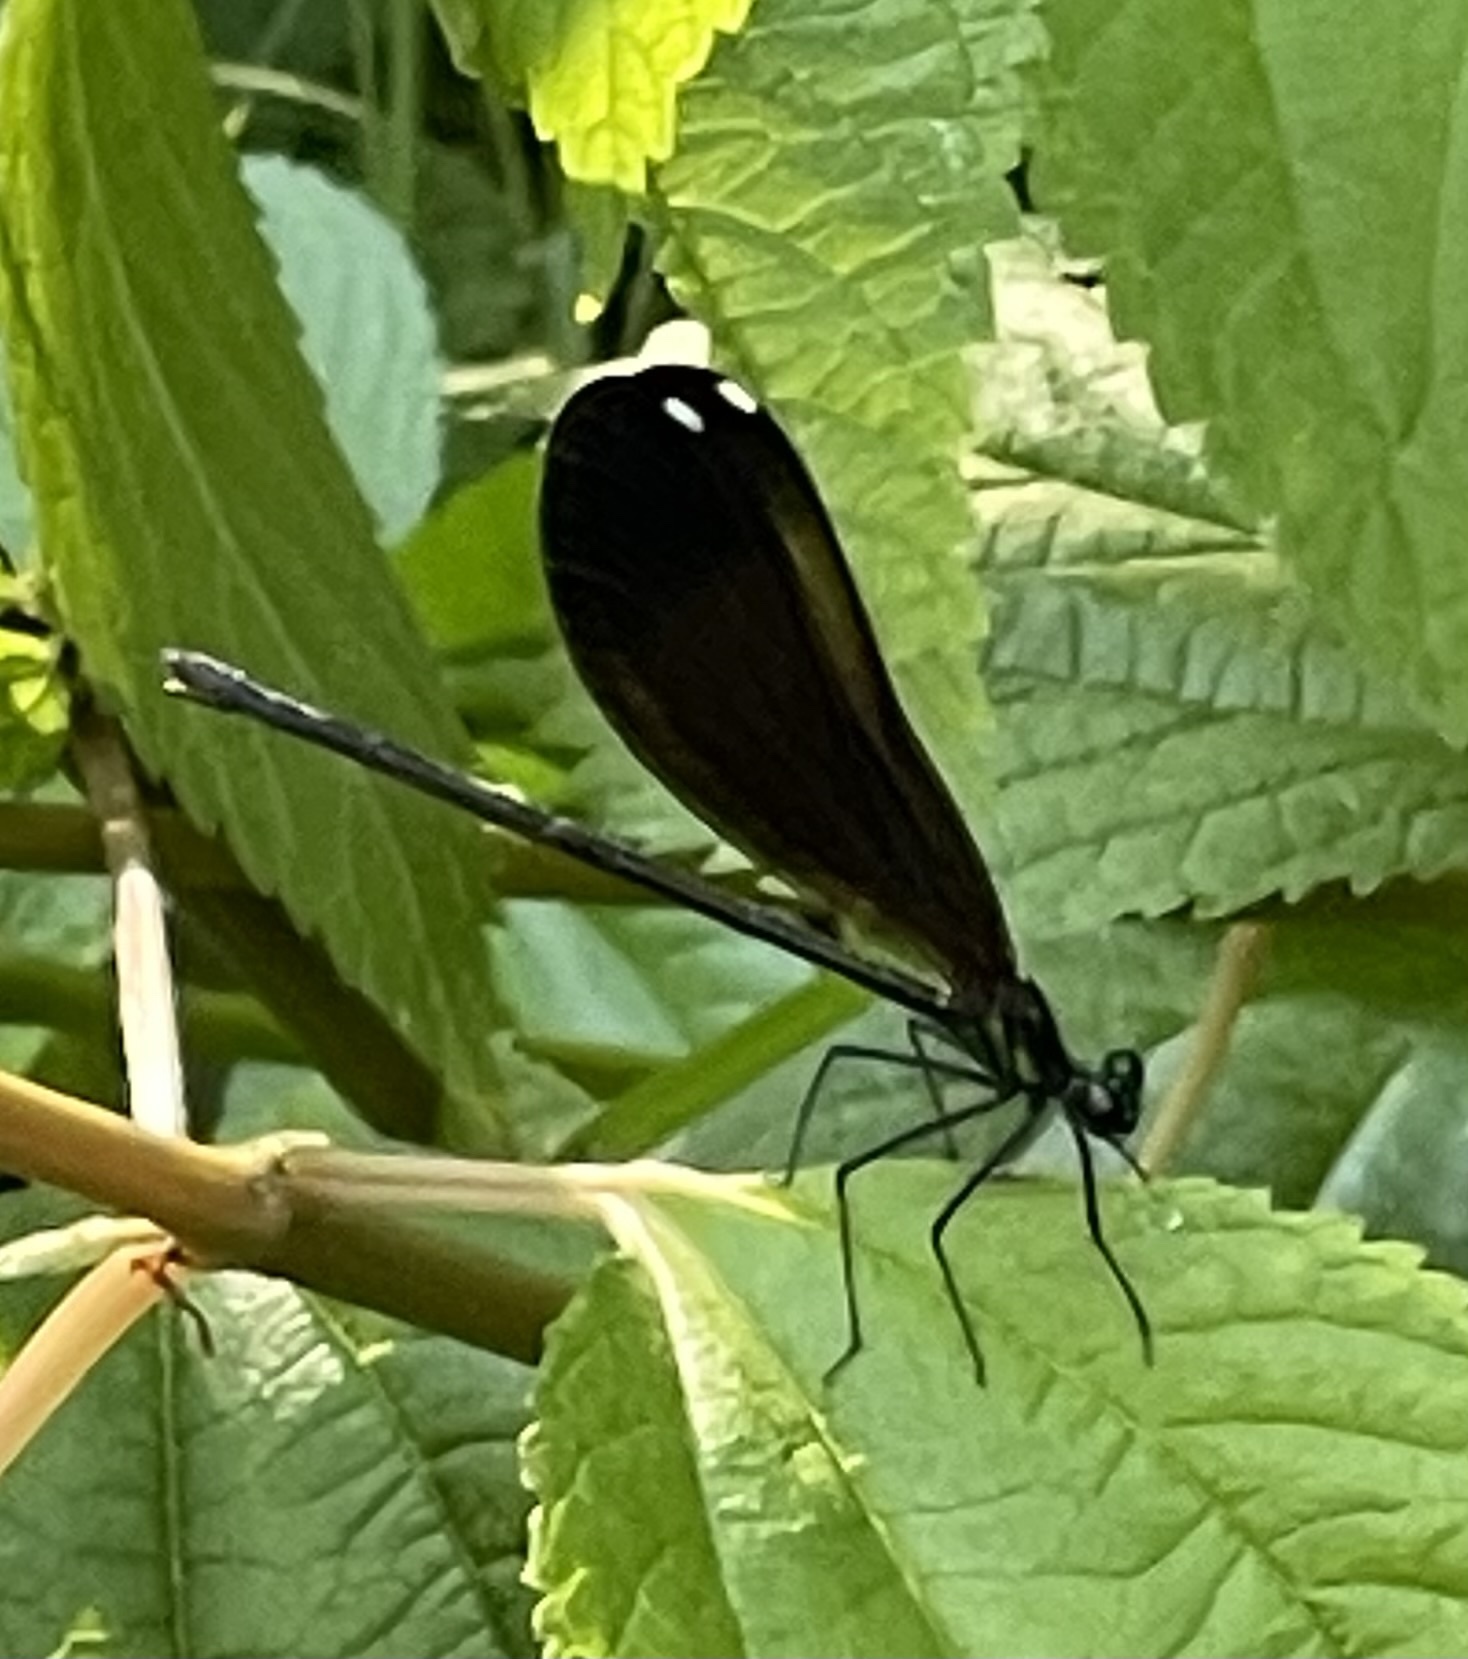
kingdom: Animalia
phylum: Arthropoda
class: Insecta
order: Odonata
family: Calopterygidae
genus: Calopteryx
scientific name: Calopteryx maculata
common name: Ebony jewelwing
